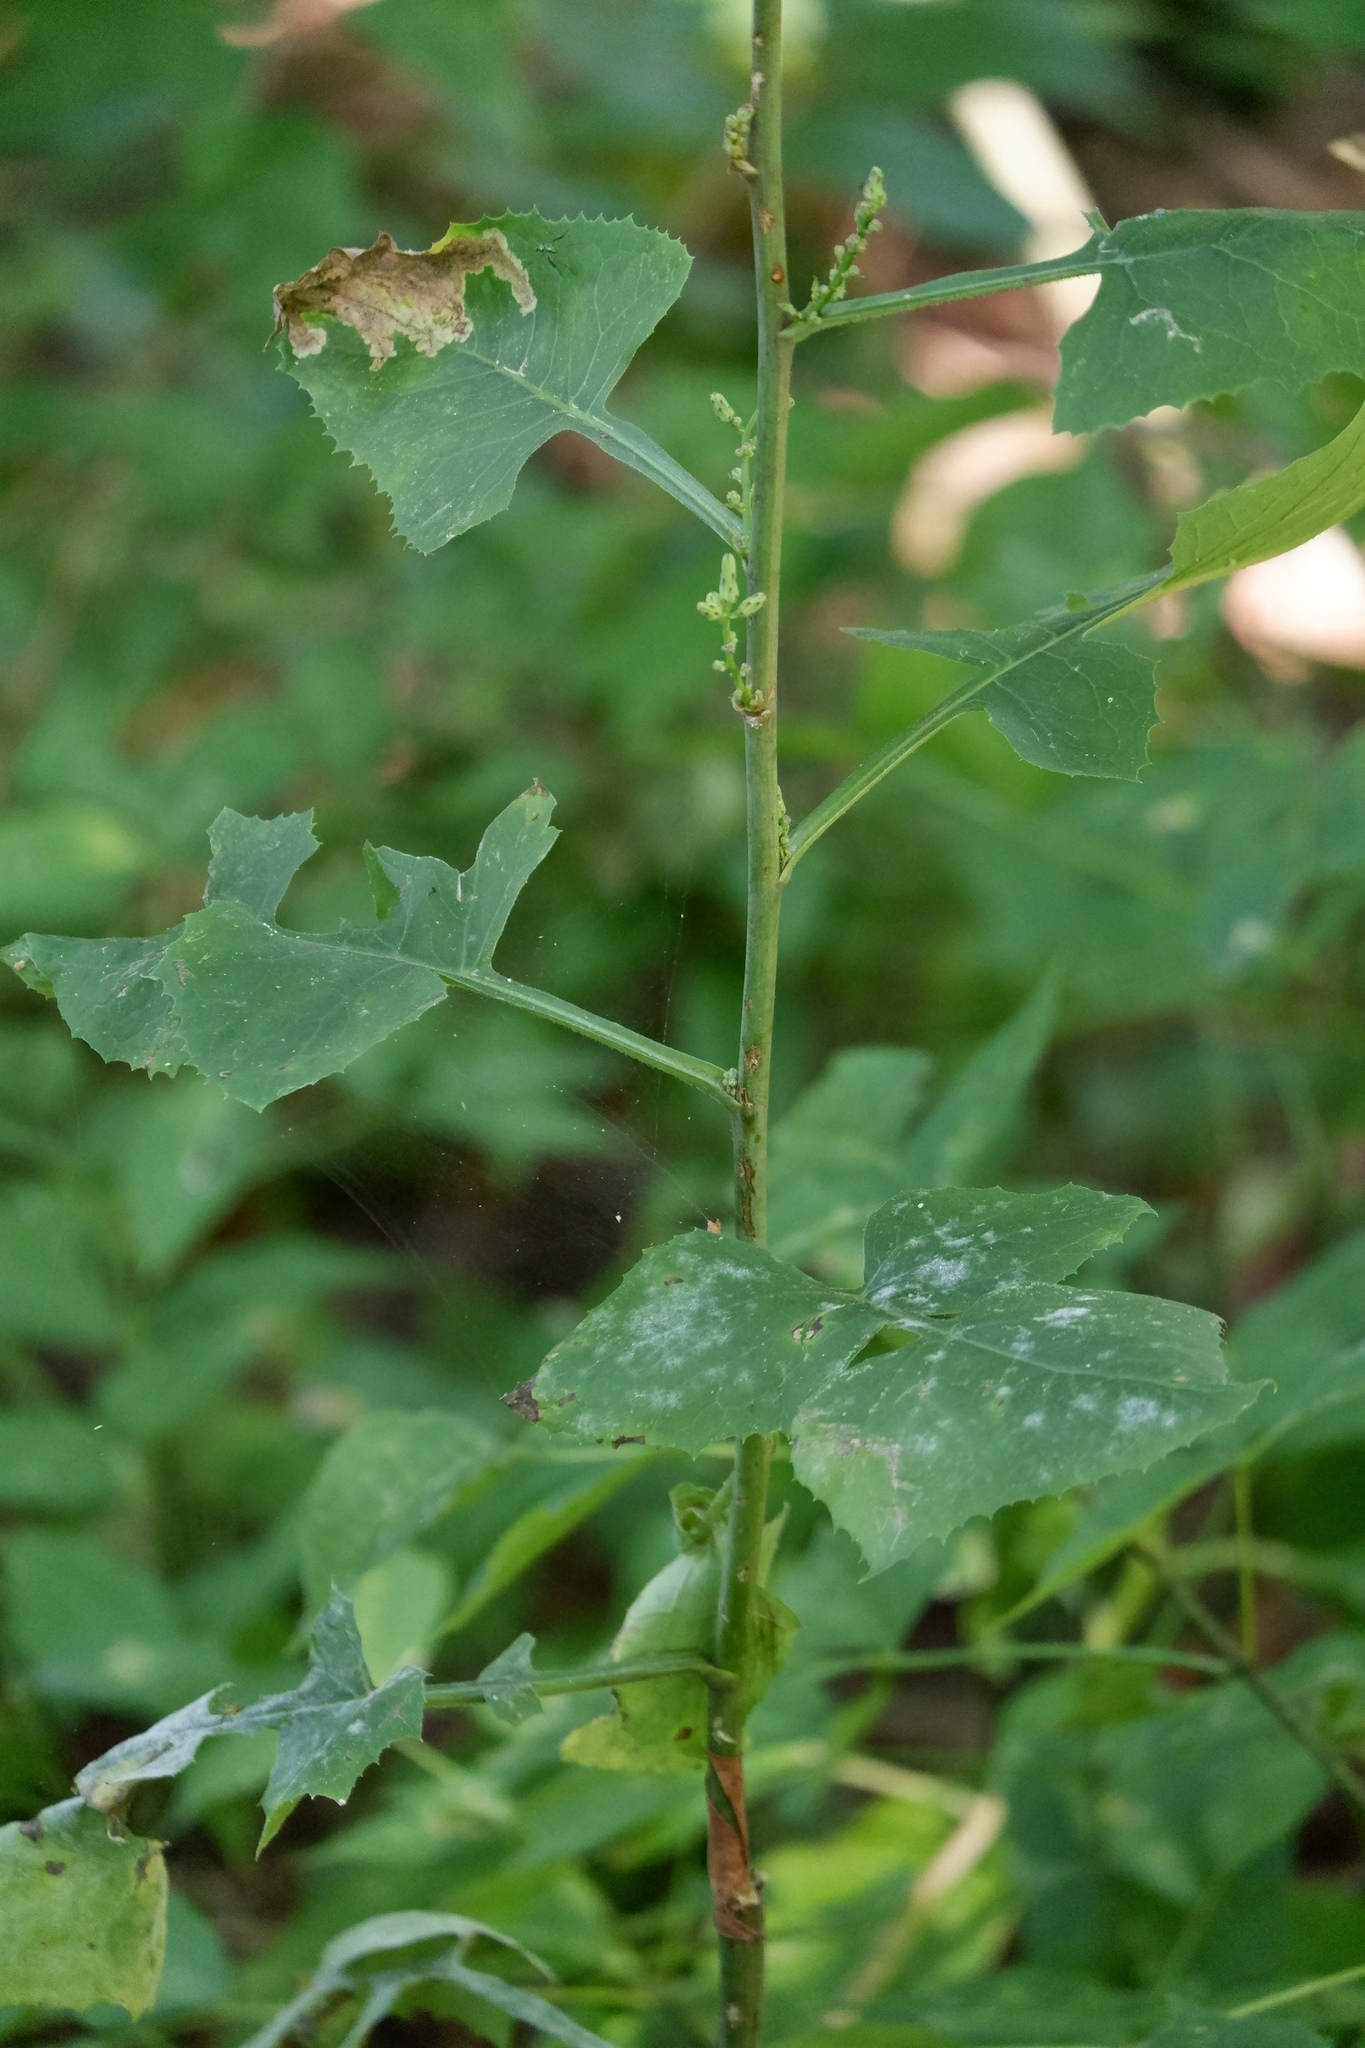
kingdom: Plantae
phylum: Tracheophyta
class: Magnoliopsida
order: Asterales
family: Asteraceae
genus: Lactuca
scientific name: Lactuca floridana
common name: Woodland lettuce
